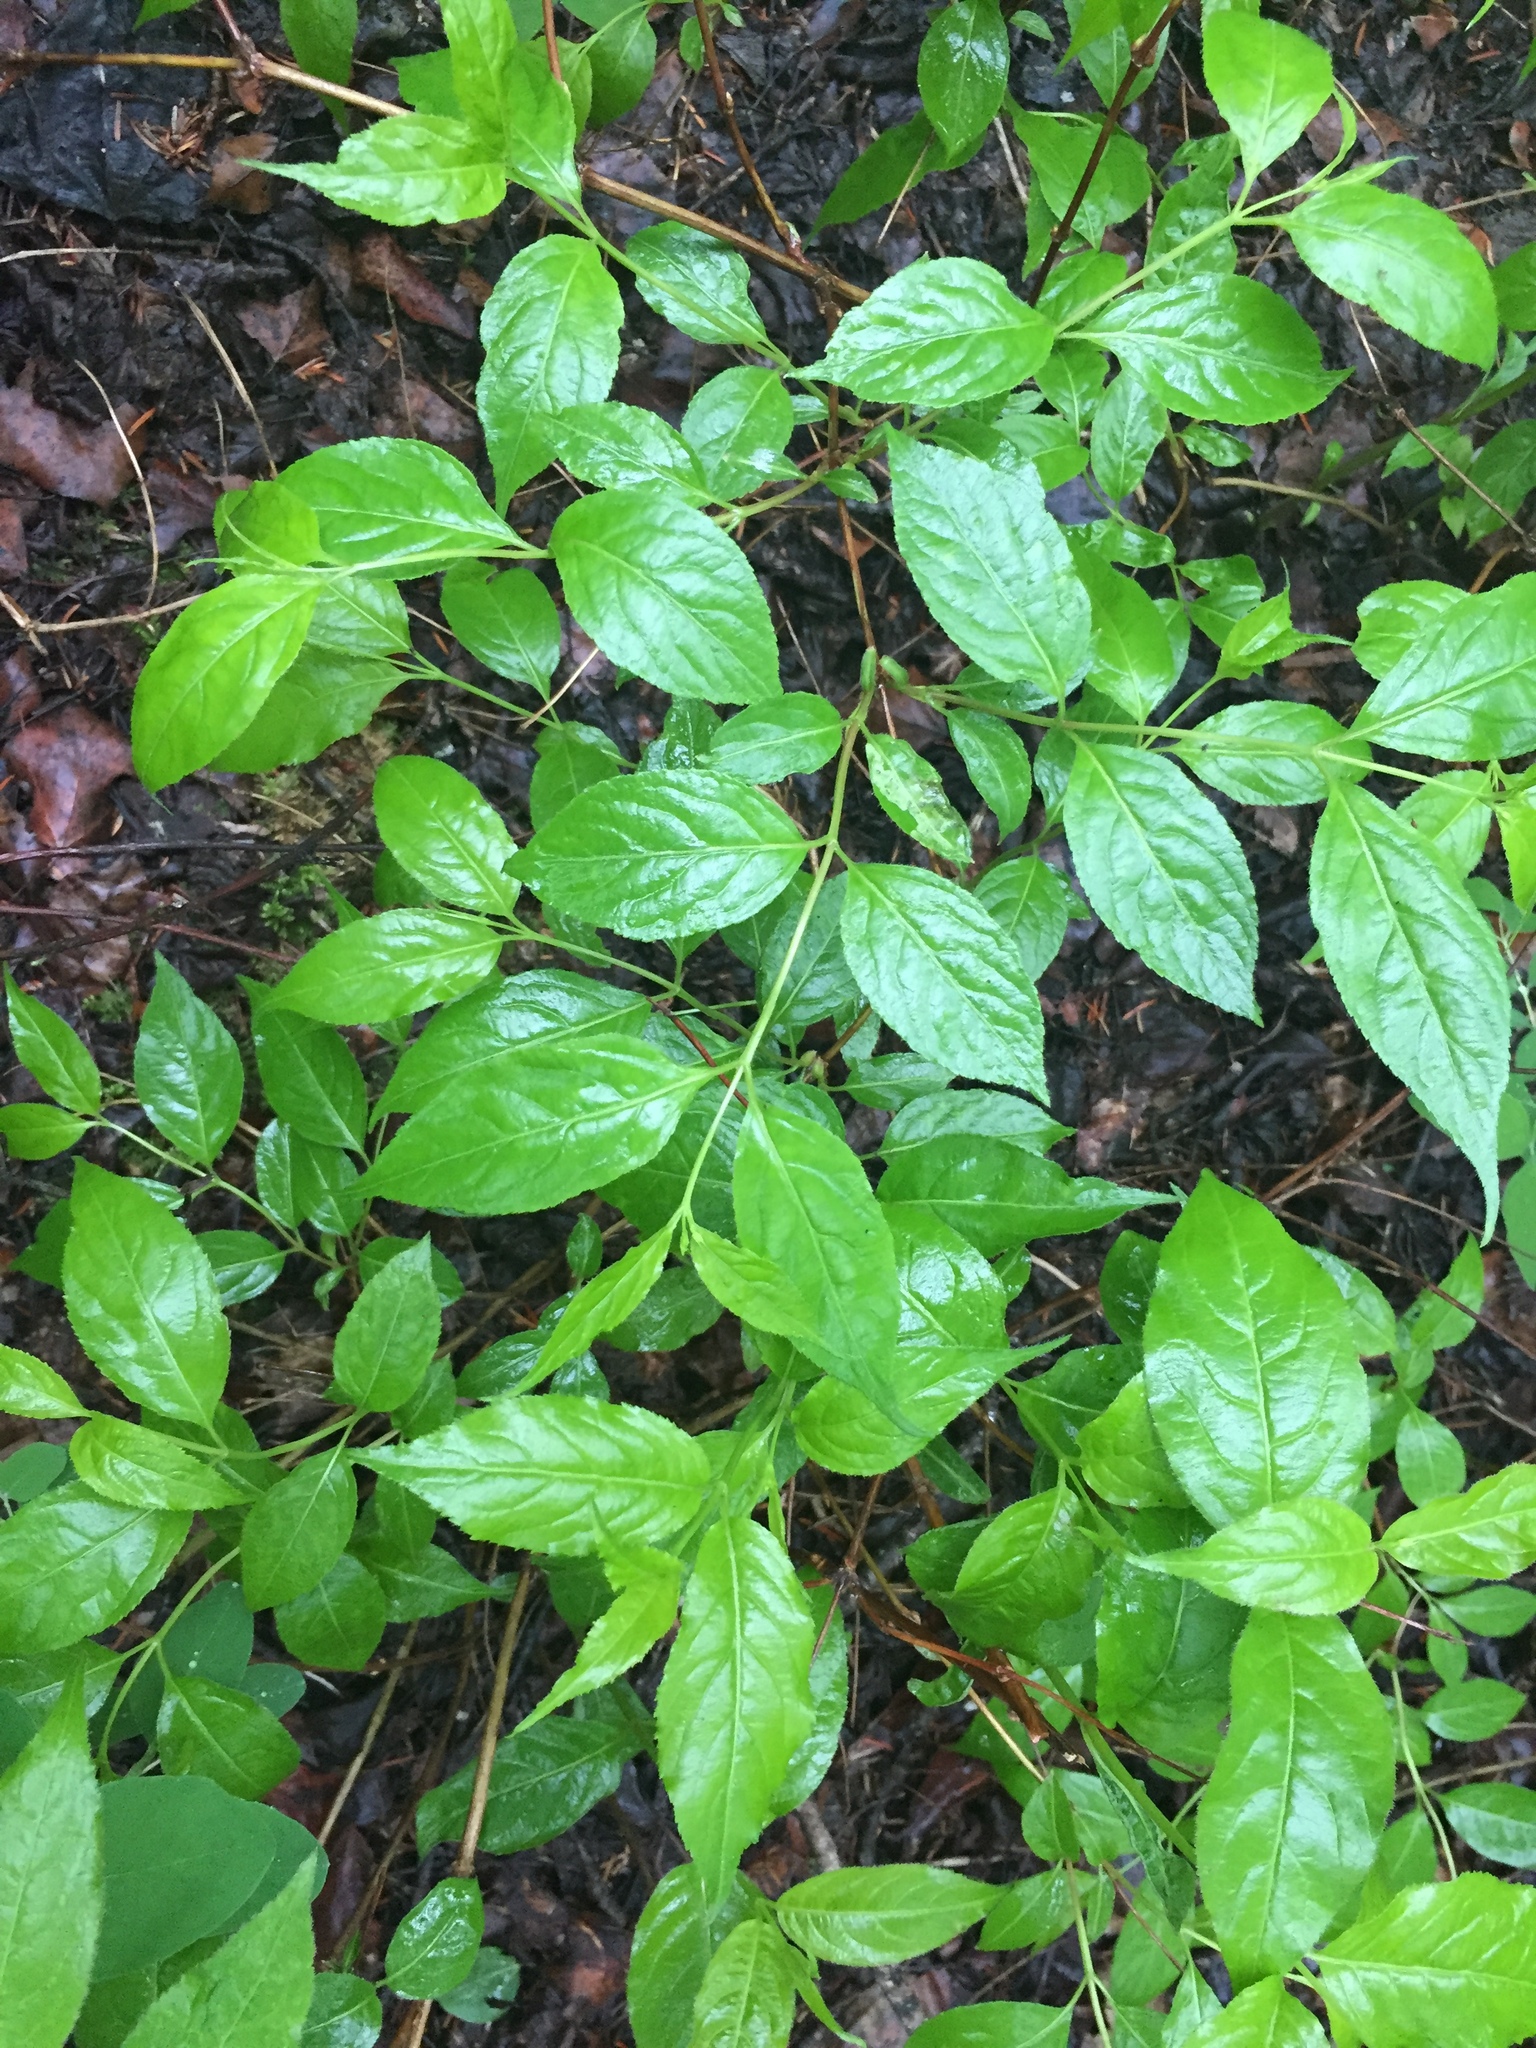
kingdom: Plantae
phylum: Tracheophyta
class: Magnoliopsida
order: Dipsacales
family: Caprifoliaceae
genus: Diervilla
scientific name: Diervilla lonicera
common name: Bush-honeysuckle
